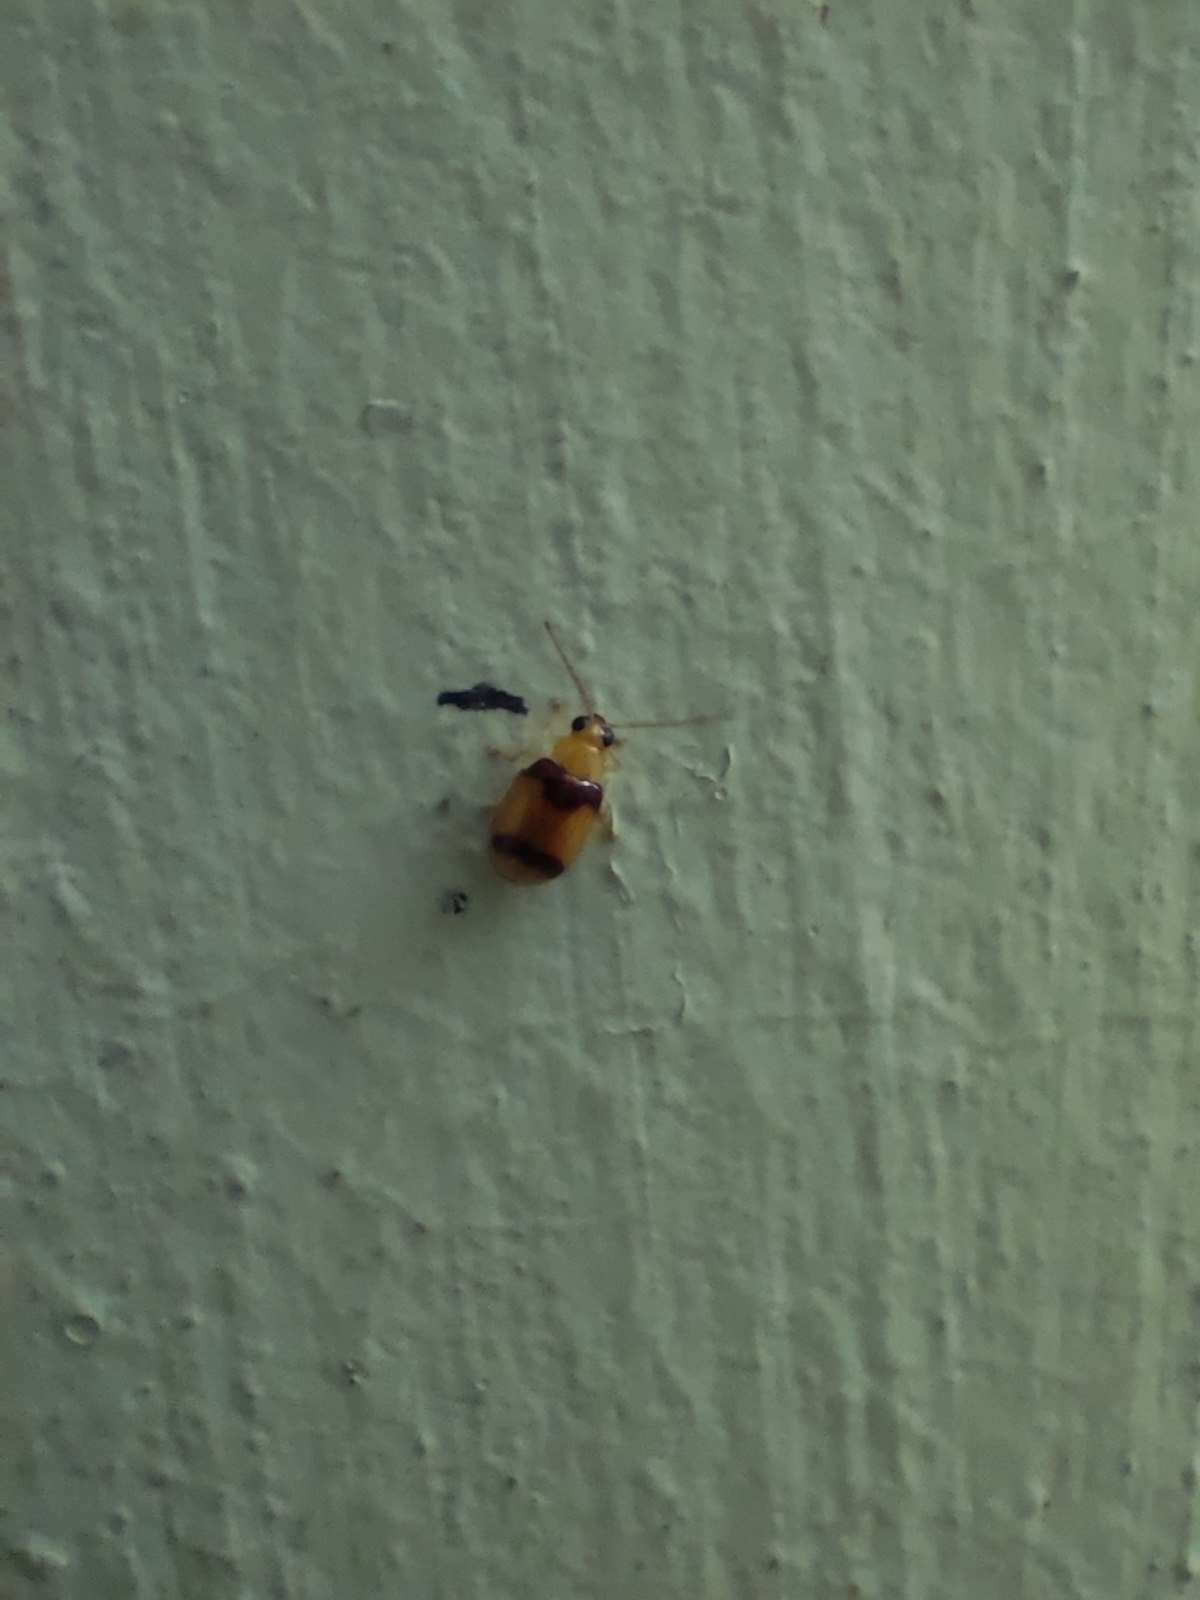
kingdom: Animalia
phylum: Arthropoda
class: Insecta
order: Coleoptera
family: Chrysomelidae
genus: Monolepta
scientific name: Monolepta
